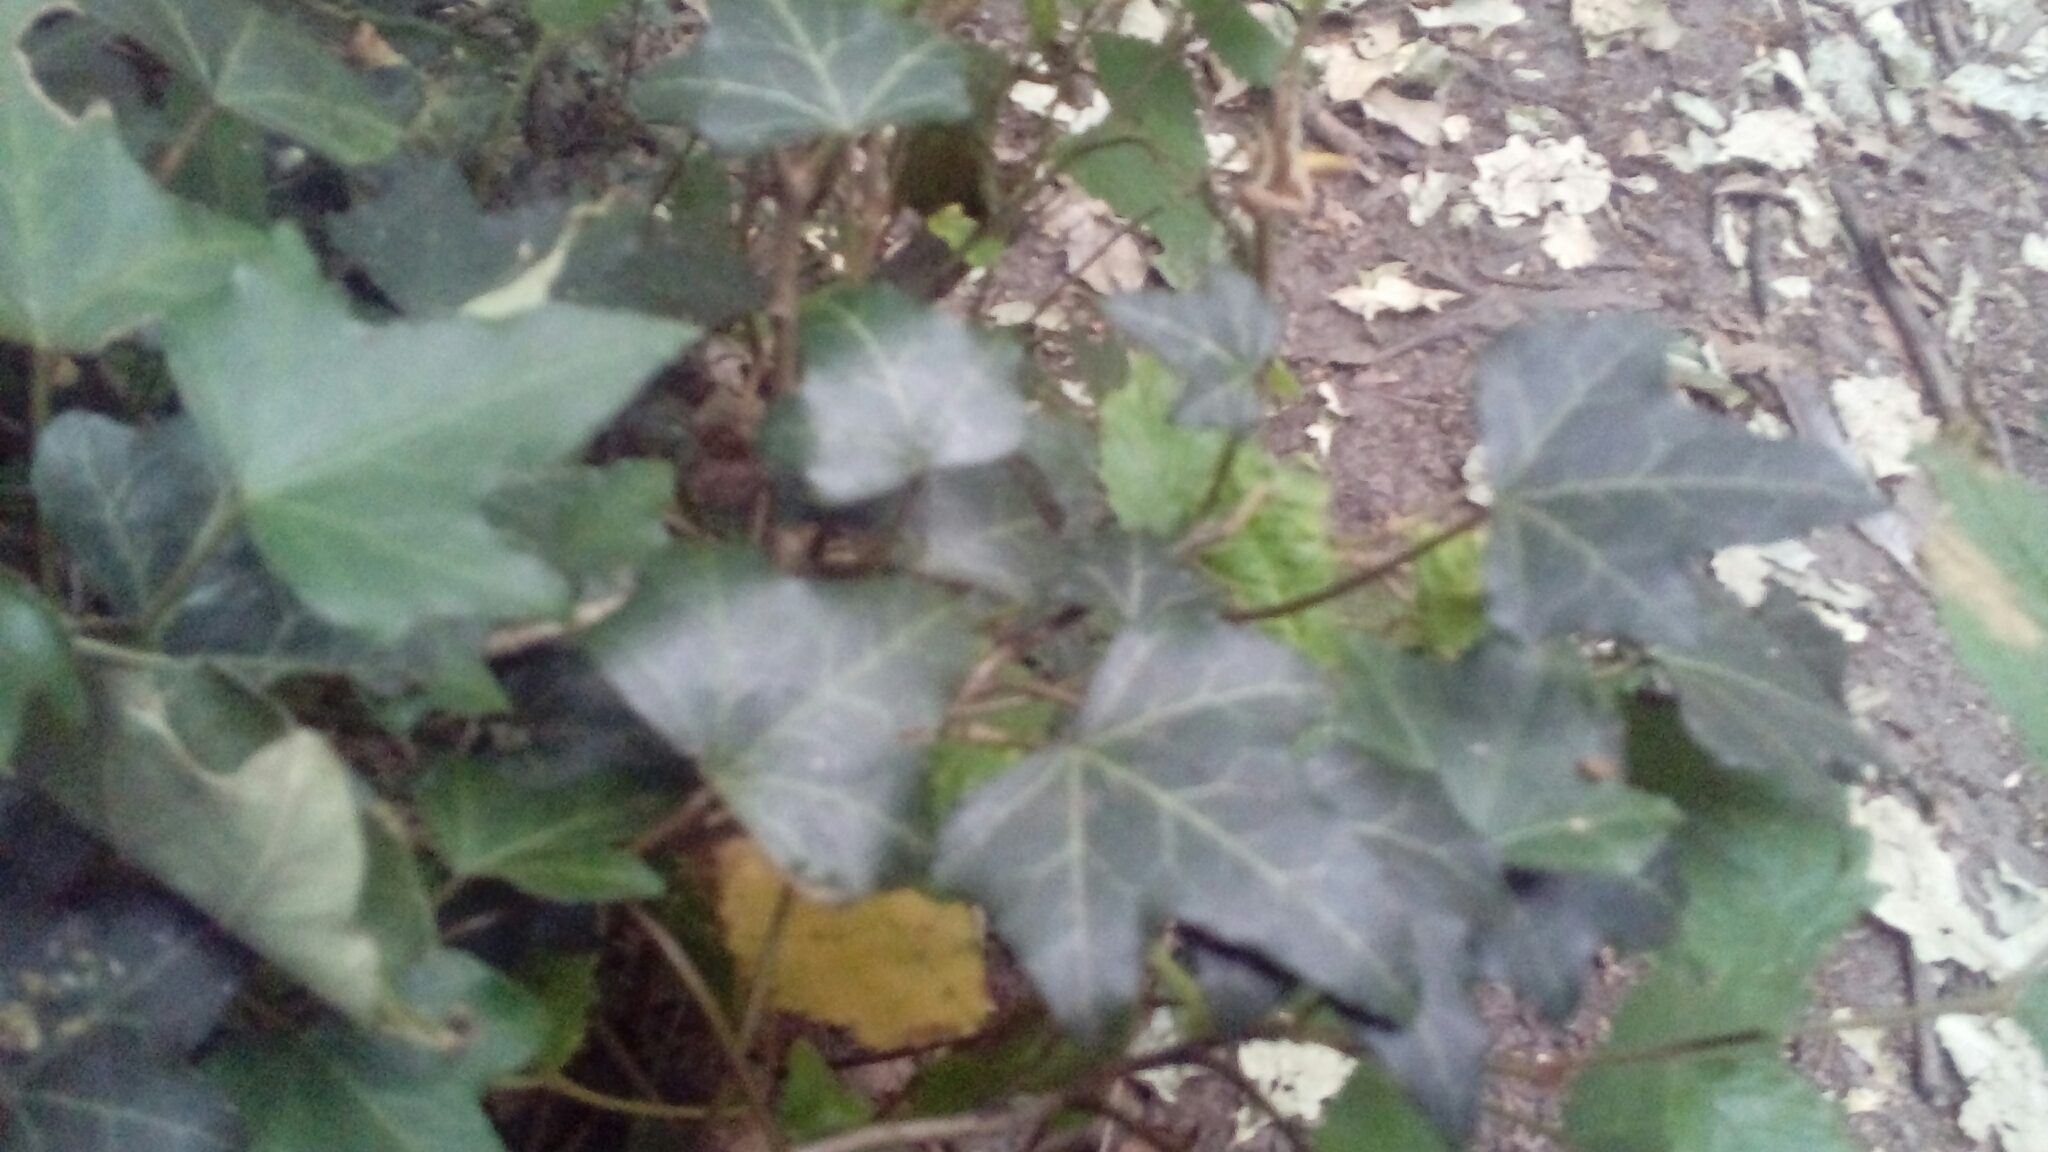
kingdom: Plantae
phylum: Tracheophyta
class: Magnoliopsida
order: Apiales
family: Araliaceae
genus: Hedera
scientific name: Hedera helix
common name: Ivy
